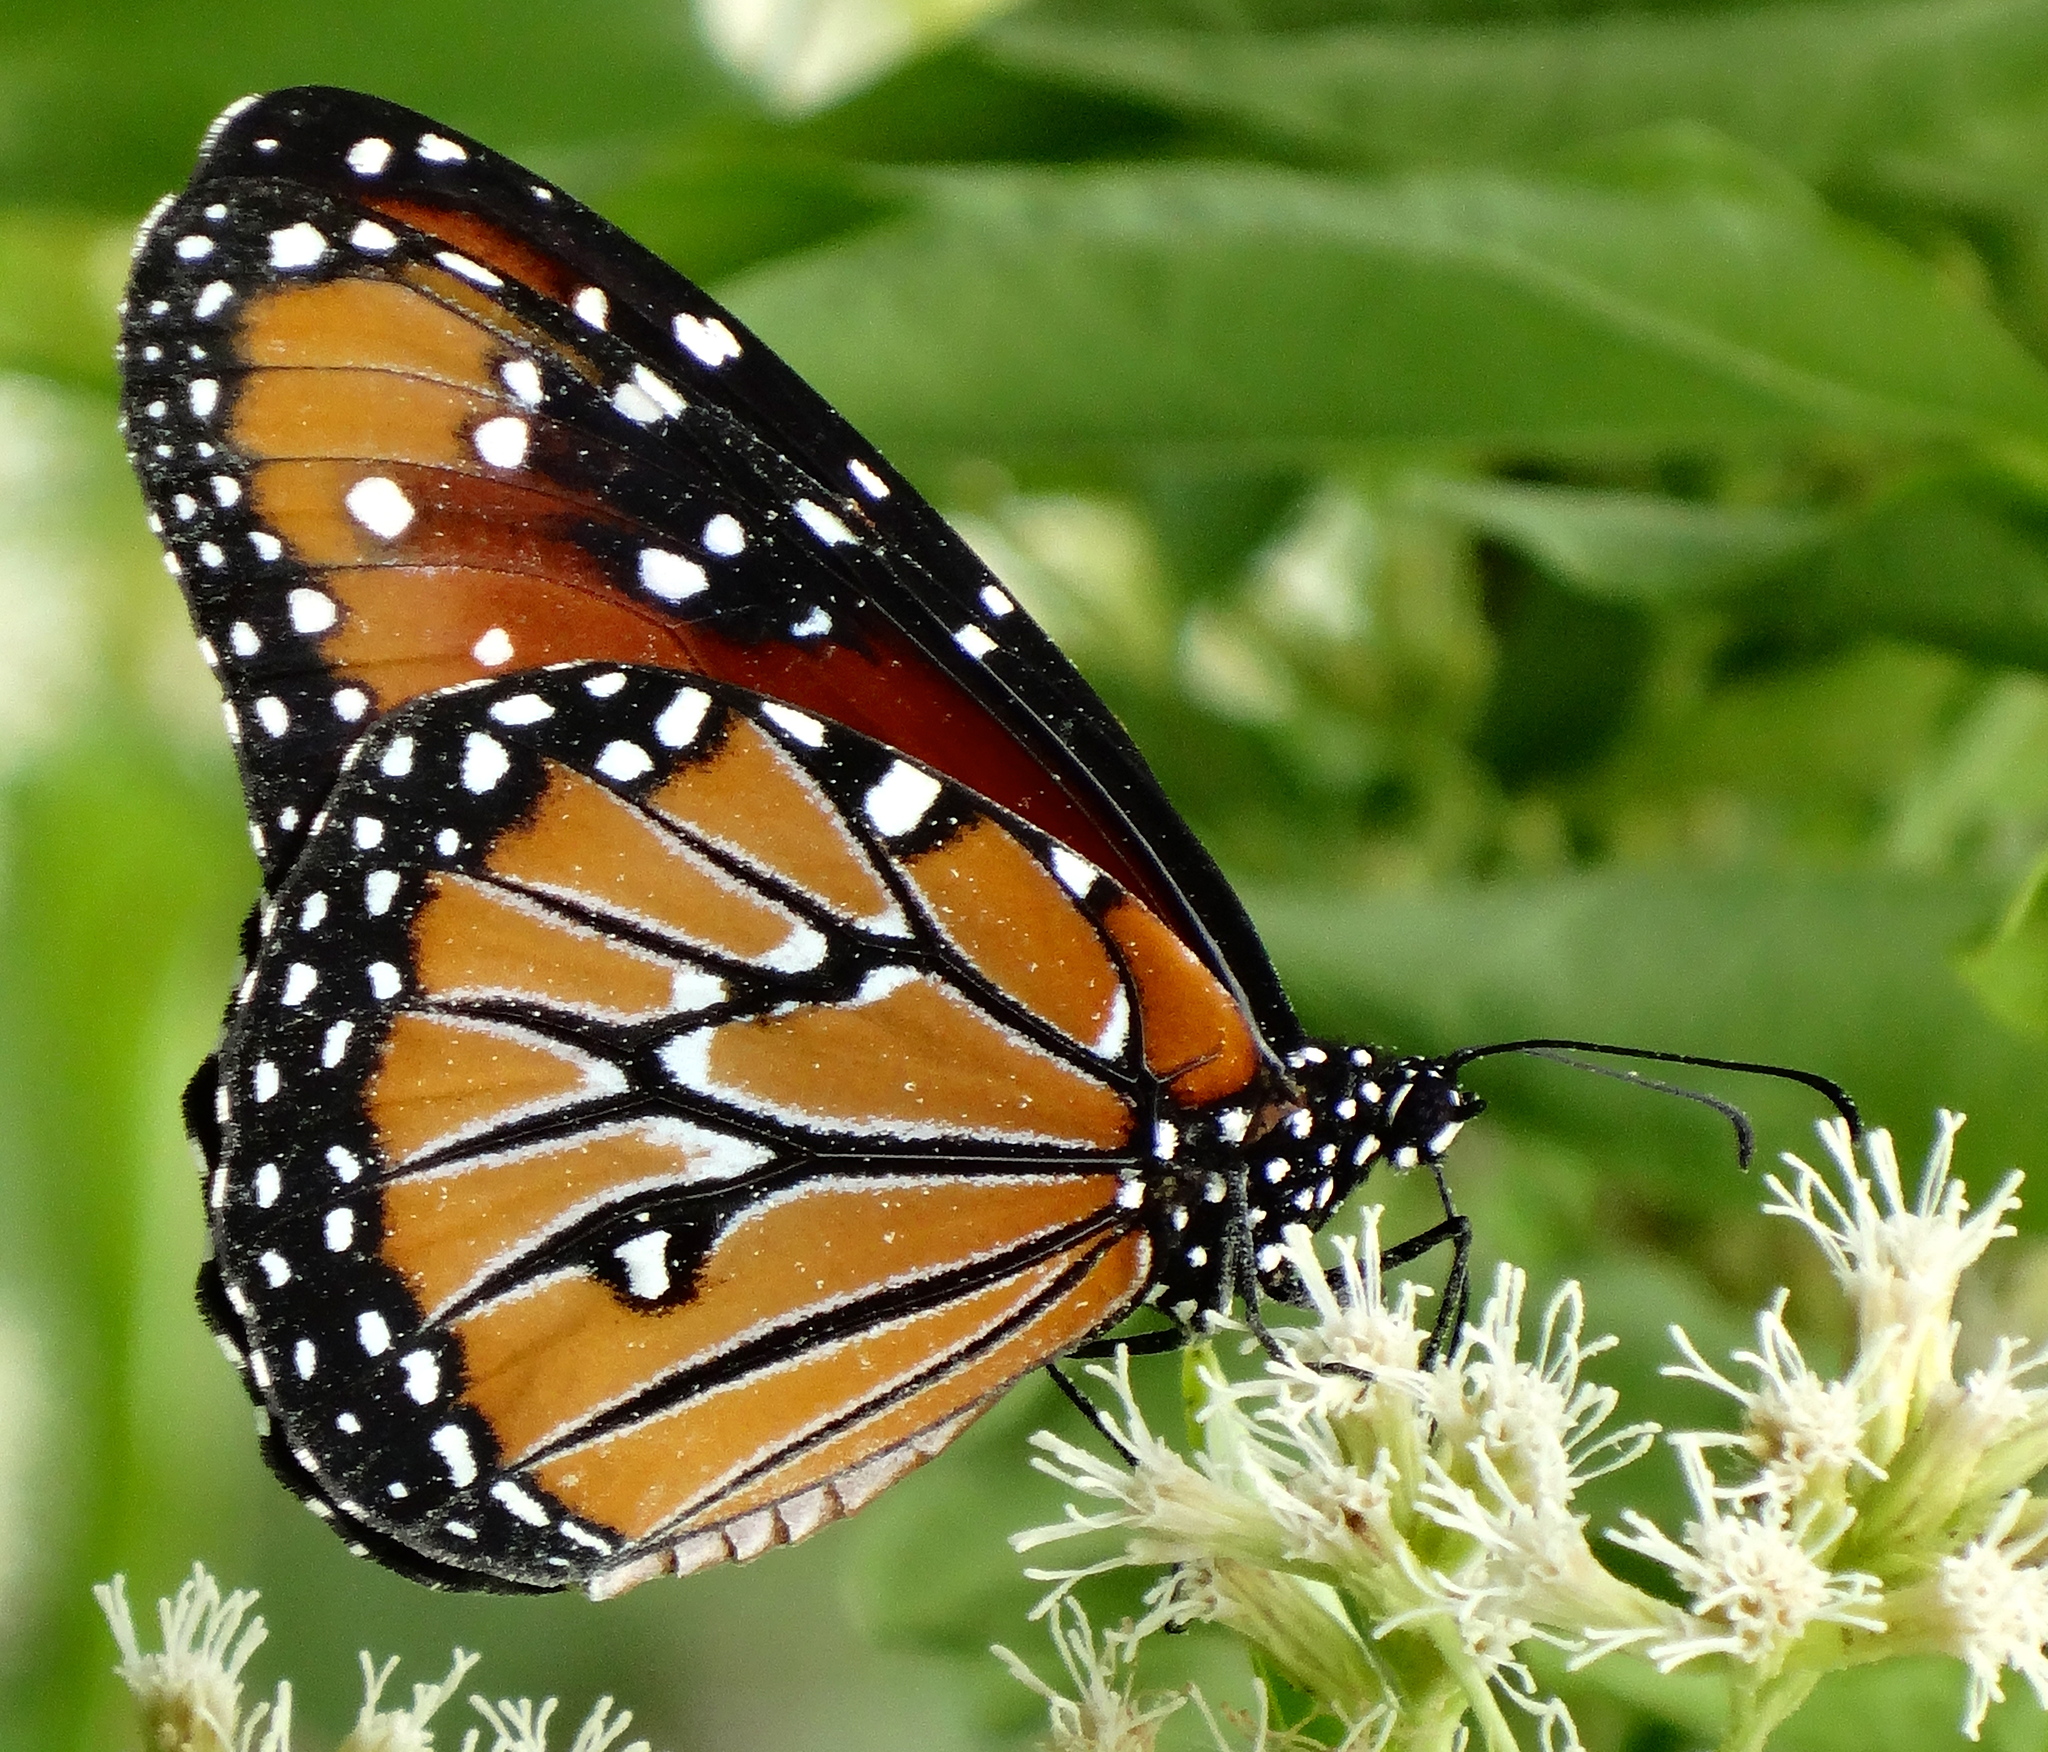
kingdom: Animalia
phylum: Arthropoda
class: Insecta
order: Lepidoptera
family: Nymphalidae
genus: Danaus
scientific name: Danaus gilippus
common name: Queen
